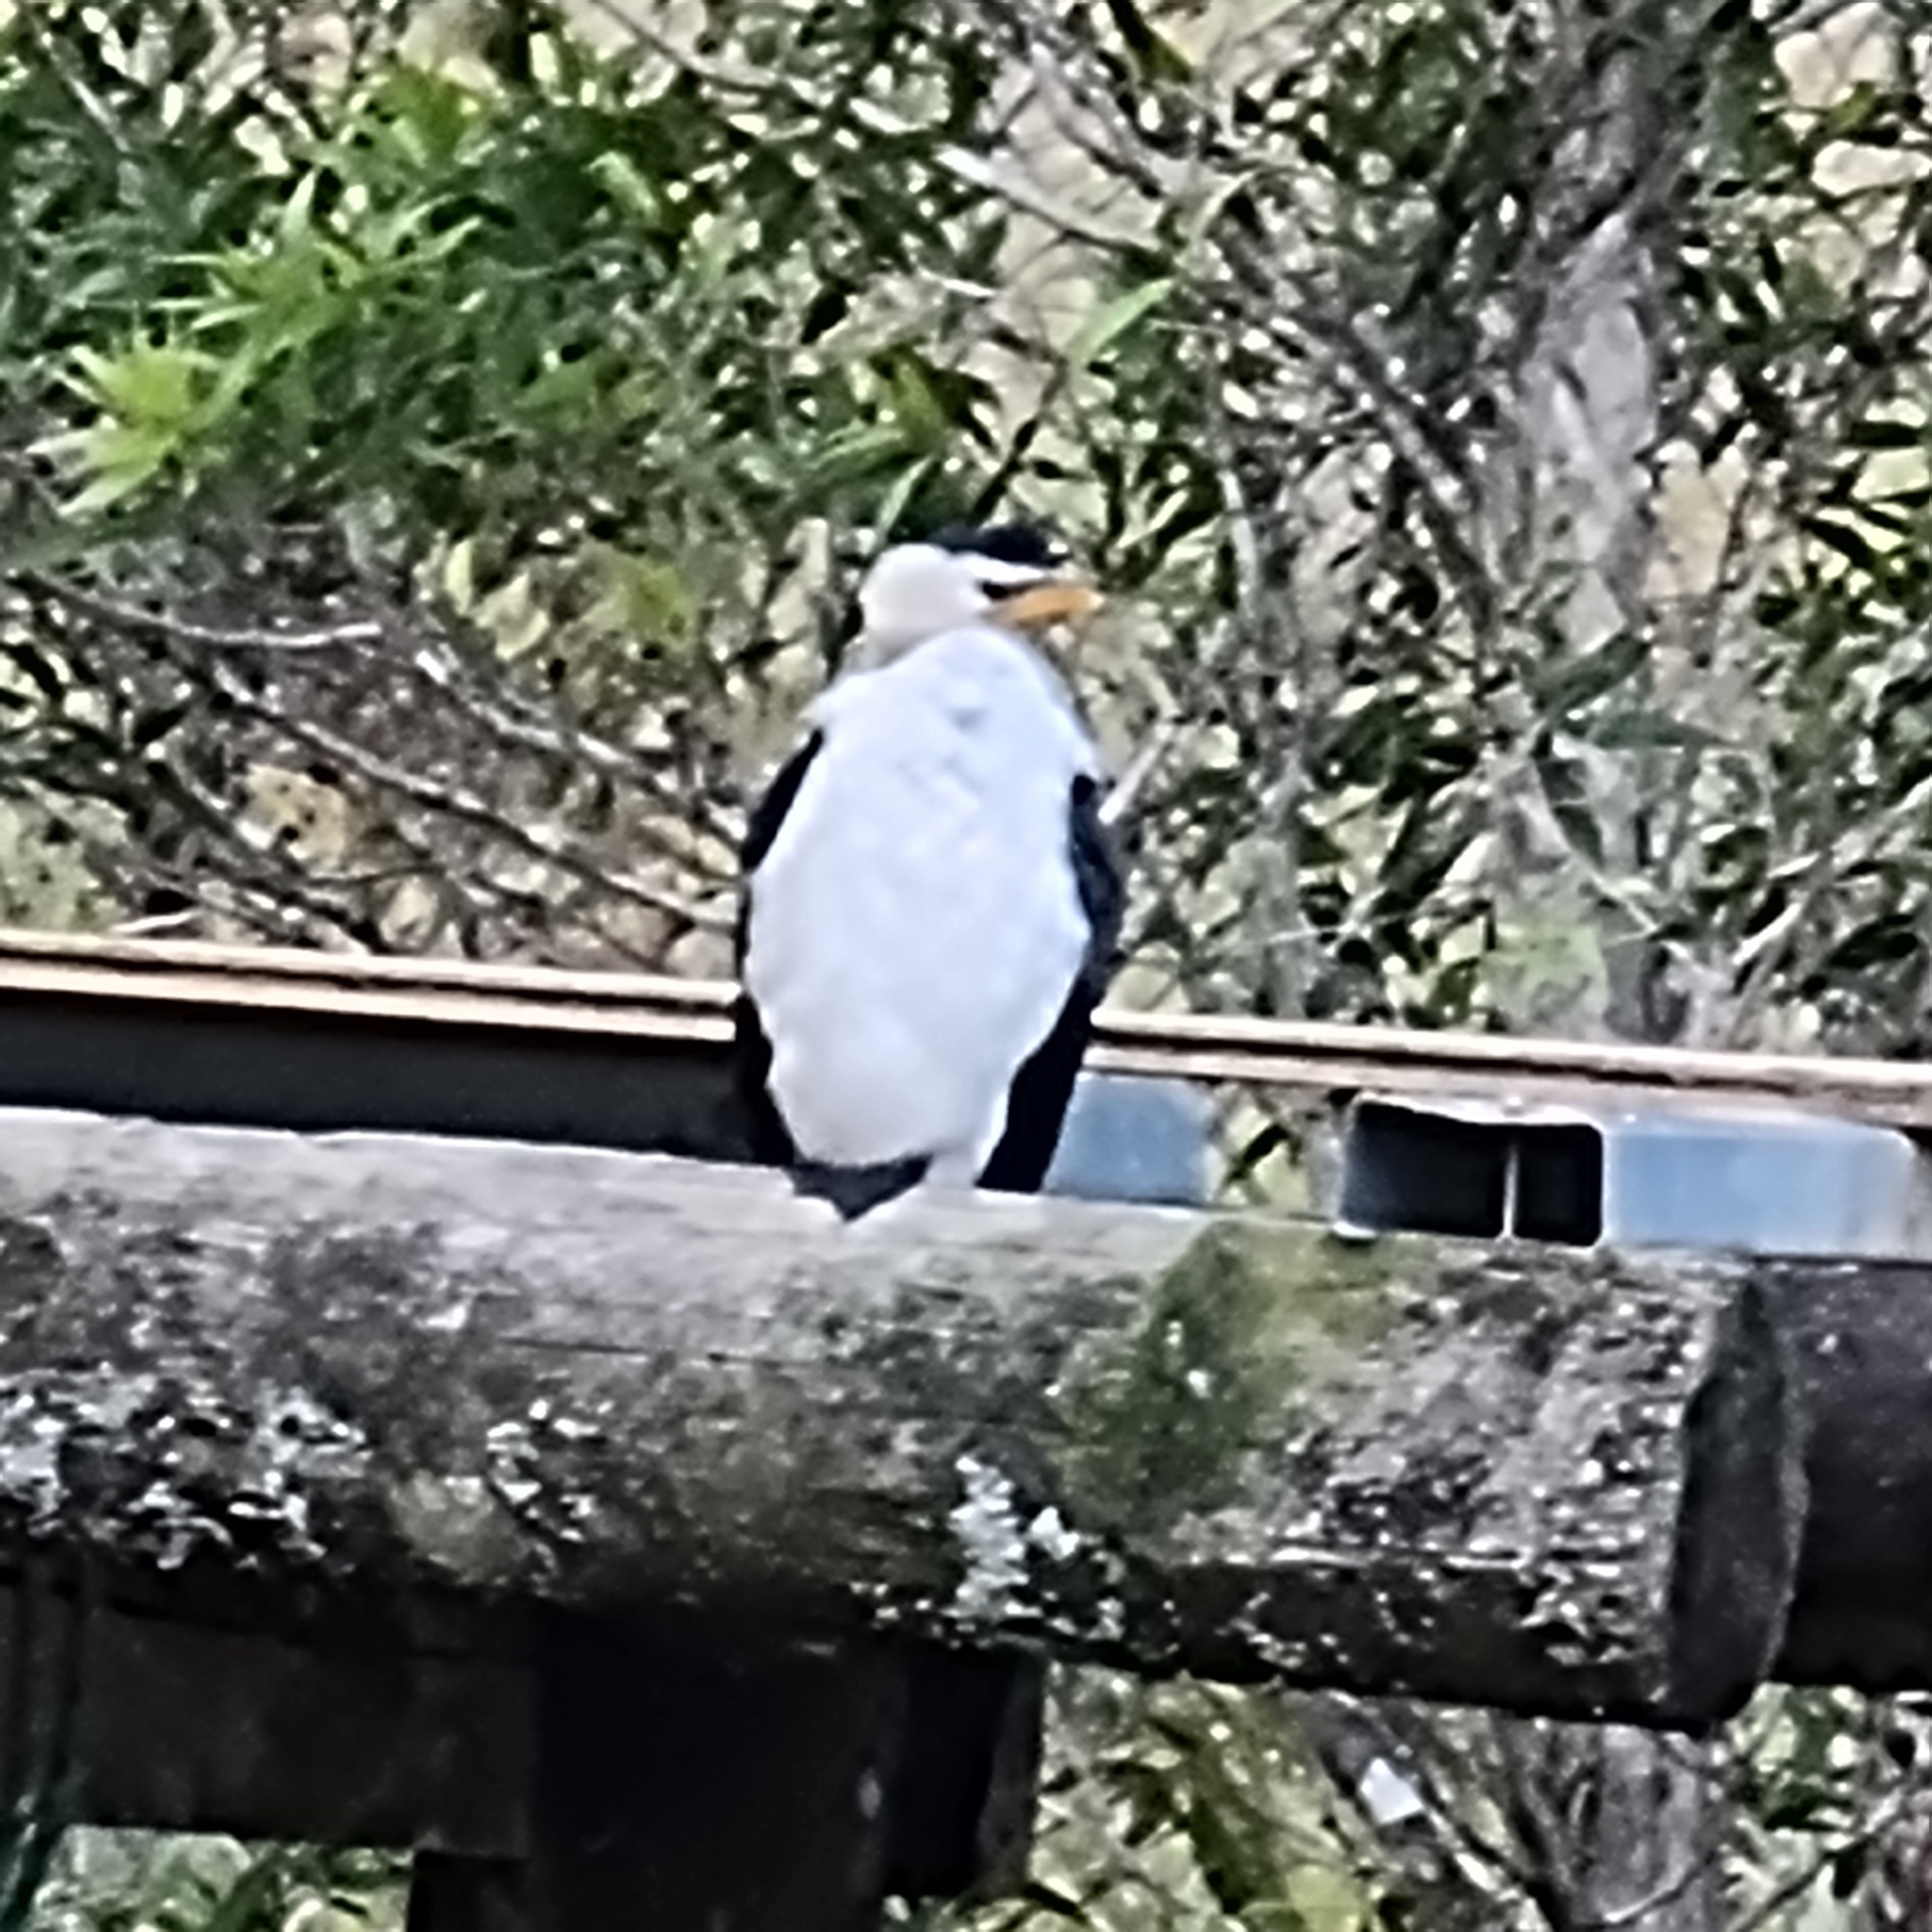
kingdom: Animalia
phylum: Chordata
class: Aves
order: Suliformes
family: Phalacrocoracidae
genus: Microcarbo
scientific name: Microcarbo melanoleucos
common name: Little pied cormorant
